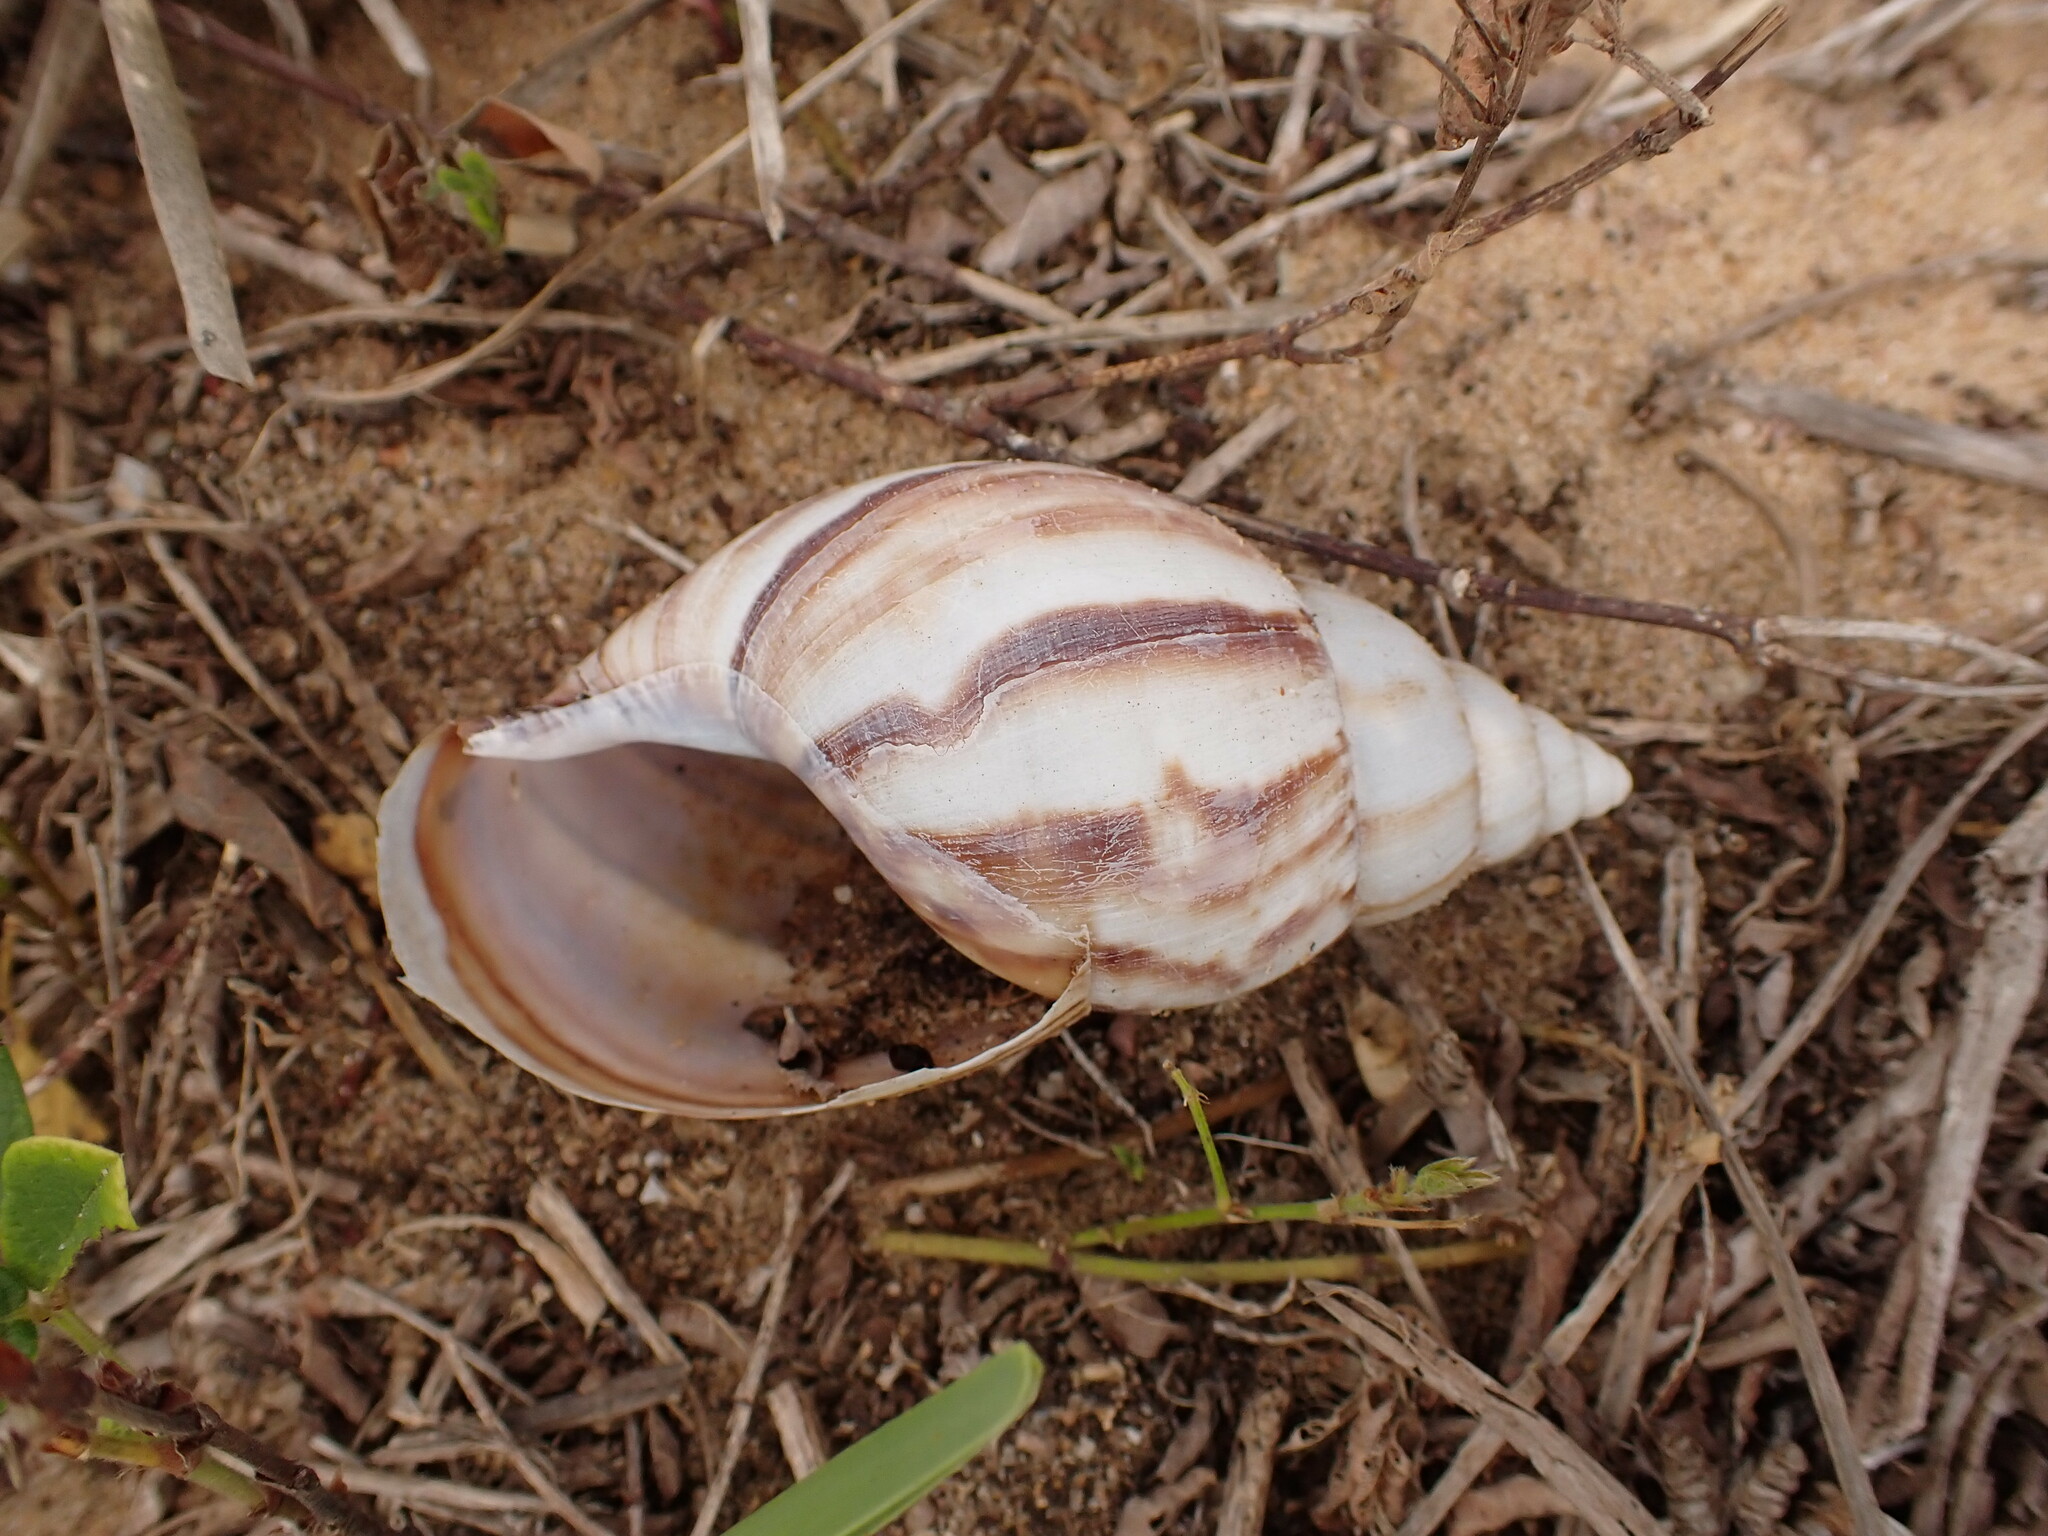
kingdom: Animalia
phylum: Mollusca
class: Gastropoda
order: Stylommatophora
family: Achatinidae
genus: Lissachatina
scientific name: Lissachatina fulica
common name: Giant african snail
